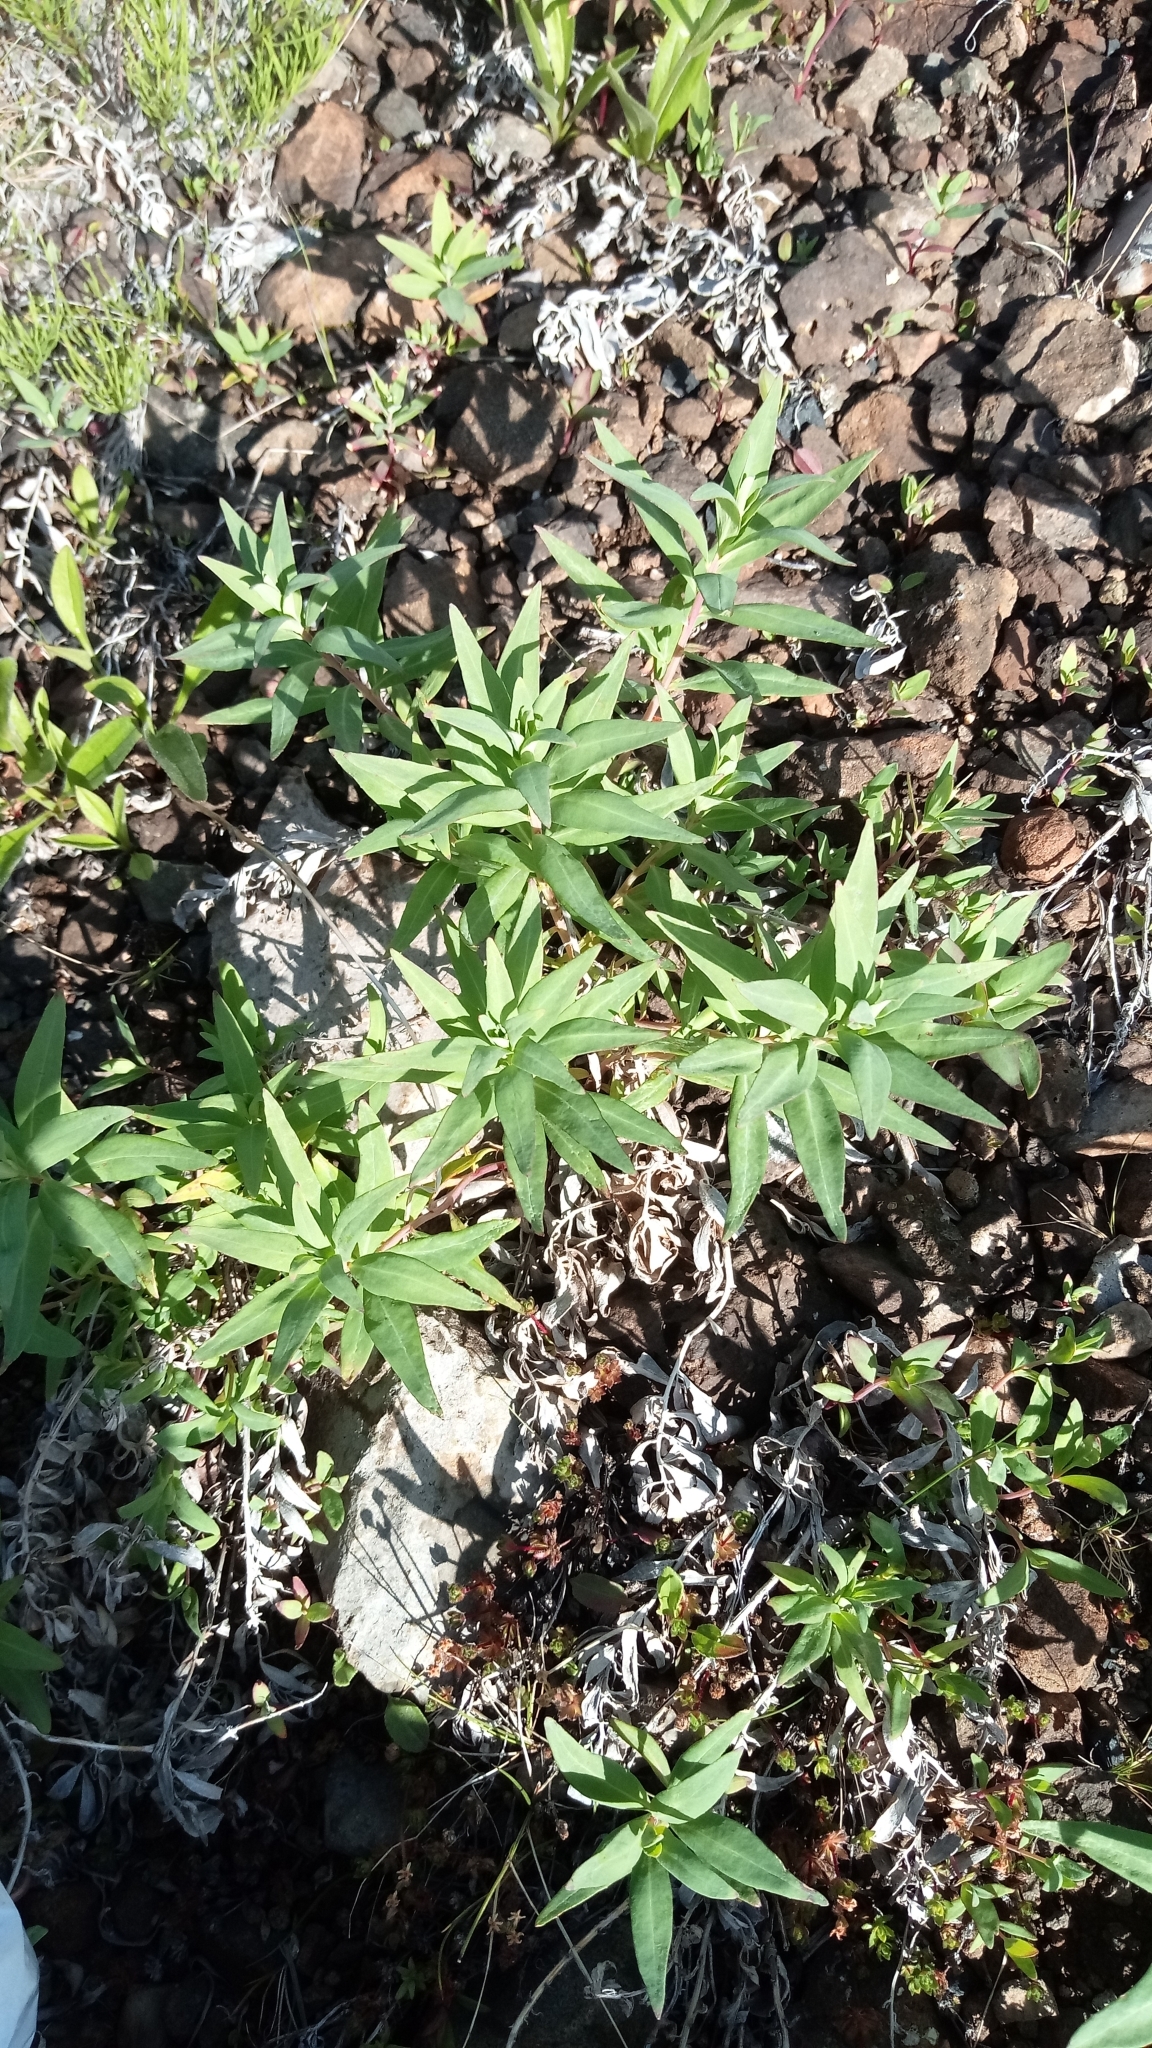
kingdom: Plantae
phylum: Tracheophyta
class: Magnoliopsida
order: Myrtales
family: Onagraceae
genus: Chamaenerion
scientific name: Chamaenerion latifolium
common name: Dwarf fireweed
